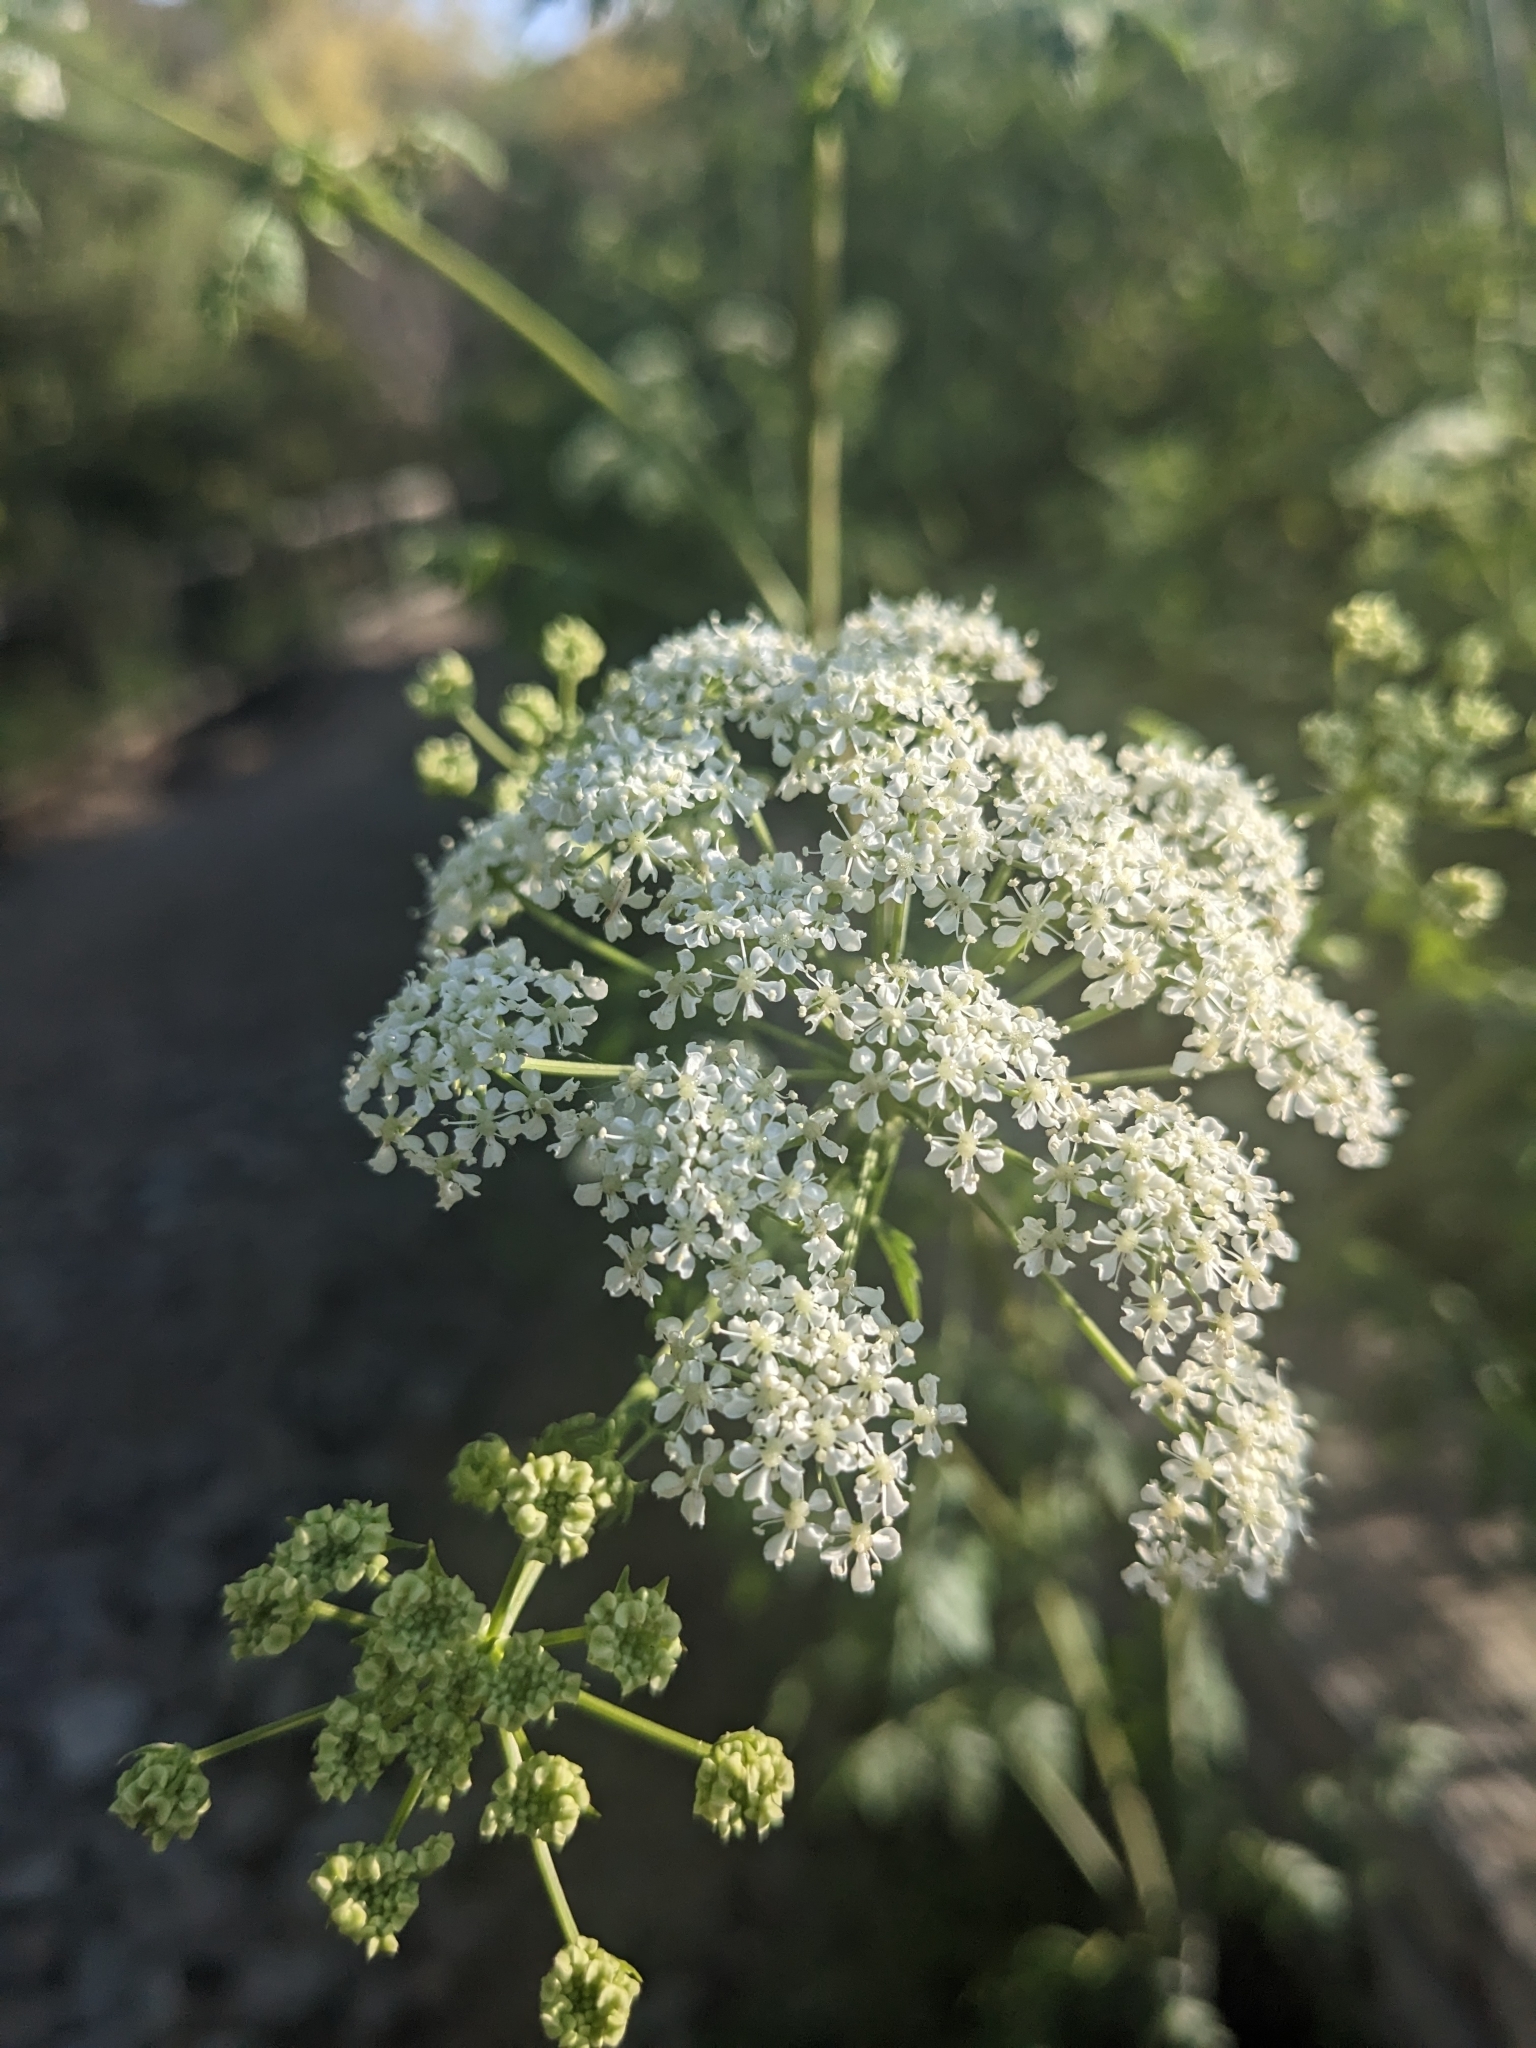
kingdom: Plantae
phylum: Tracheophyta
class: Magnoliopsida
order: Apiales
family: Apiaceae
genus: Conium
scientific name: Conium maculatum
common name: Hemlock
